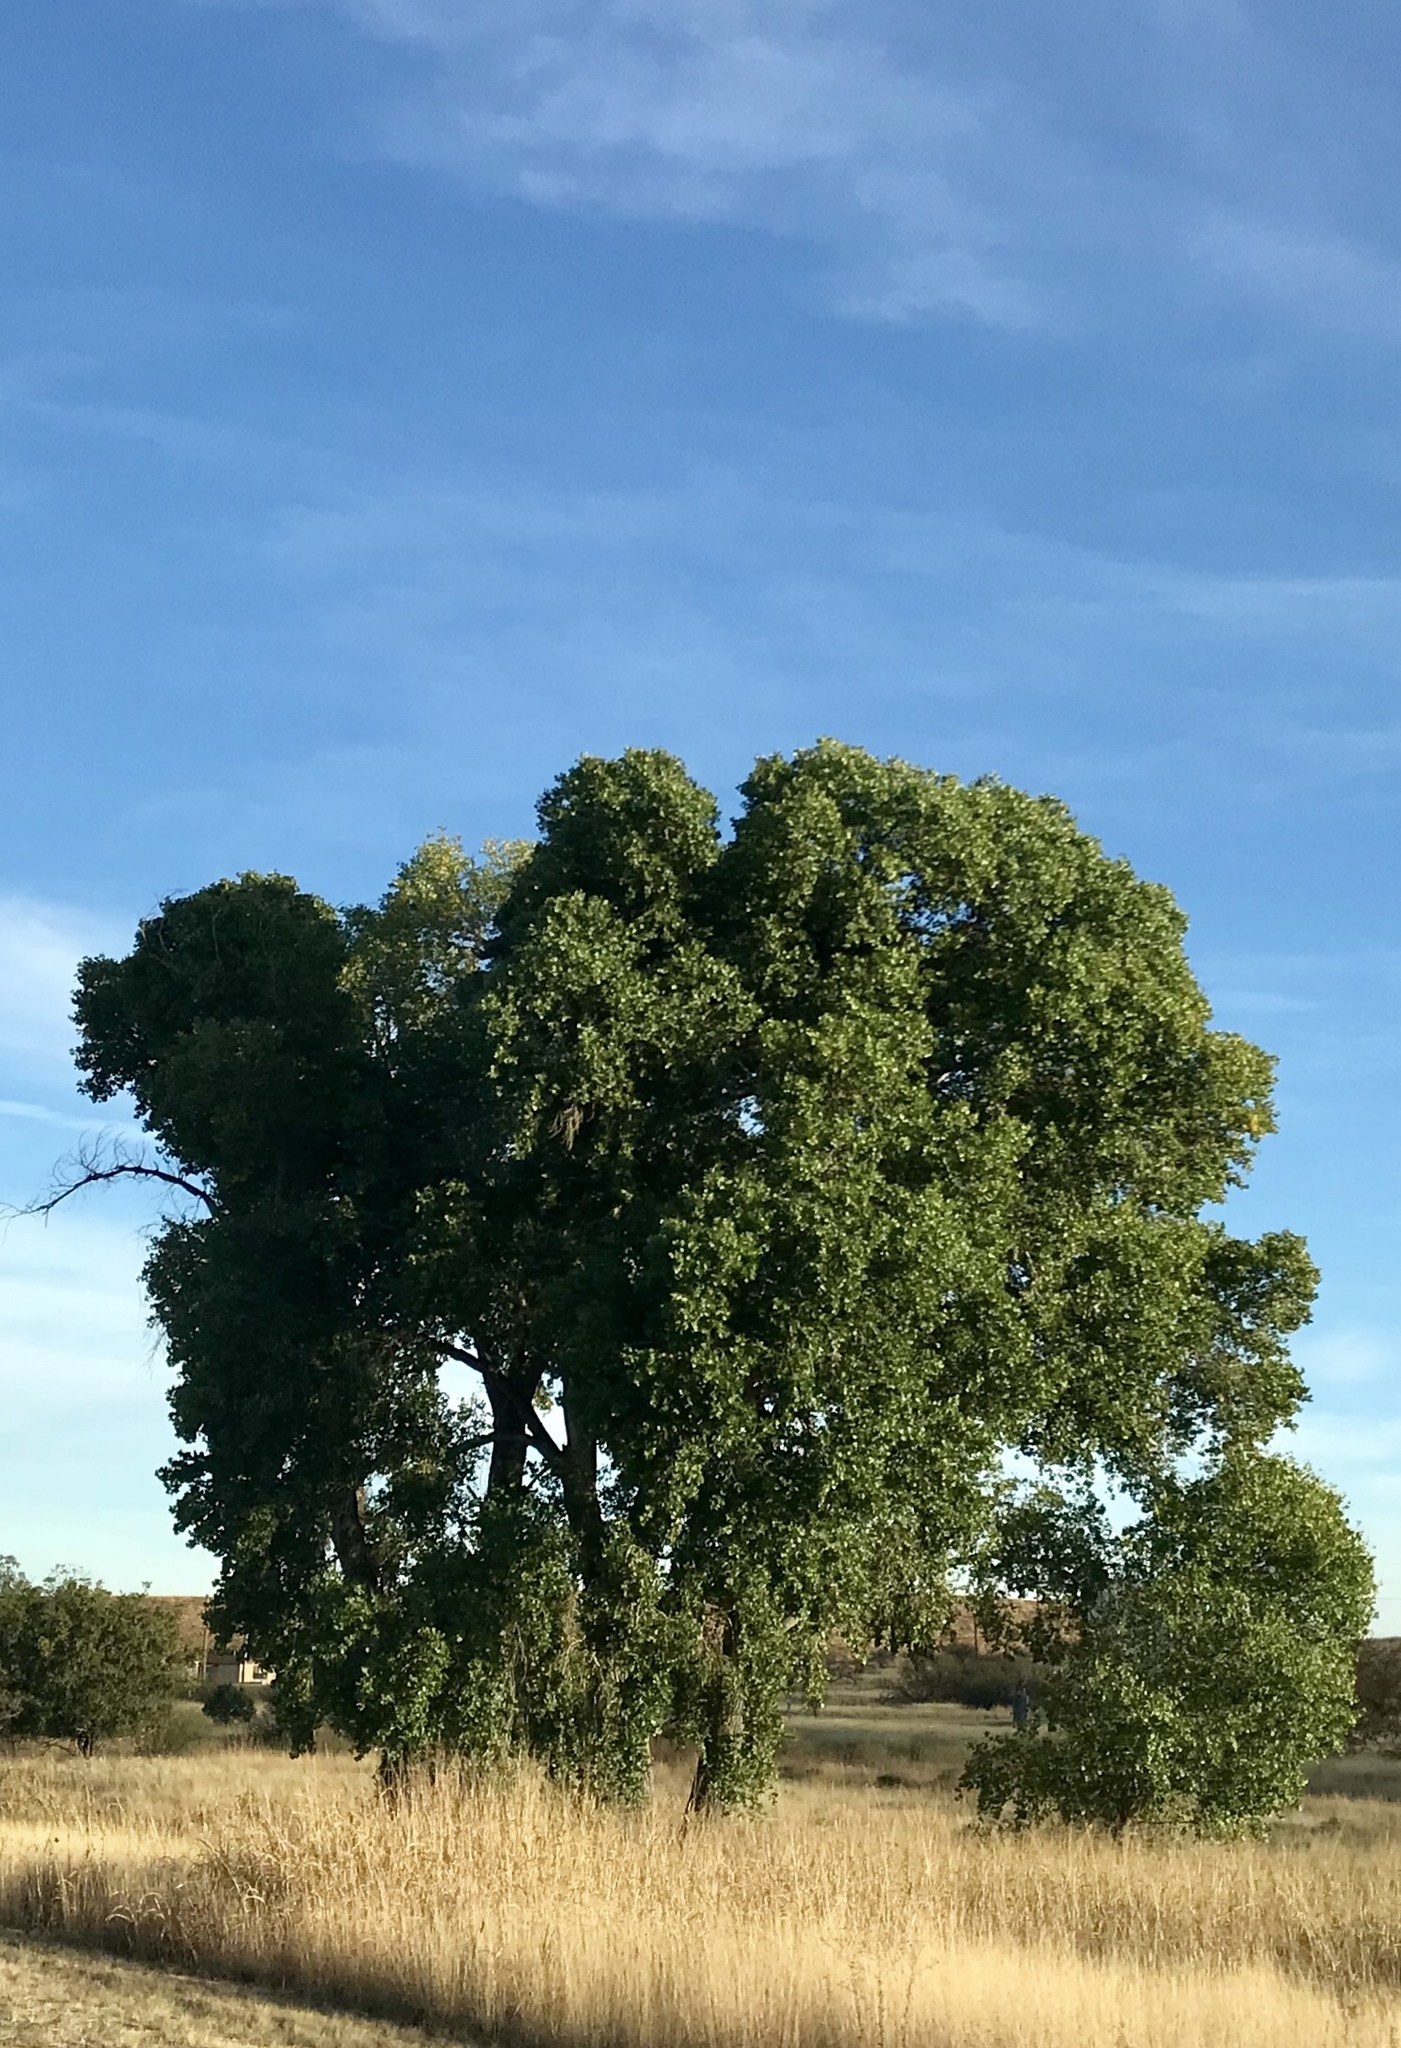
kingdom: Plantae
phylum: Tracheophyta
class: Magnoliopsida
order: Malpighiales
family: Salicaceae
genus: Populus
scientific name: Populus fremontii
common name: Fremont's cottonwood
